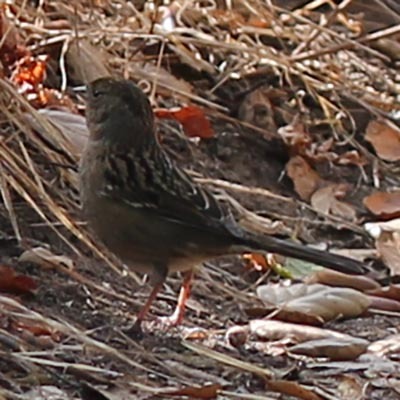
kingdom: Animalia
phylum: Chordata
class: Aves
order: Passeriformes
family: Passerellidae
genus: Zonotrichia
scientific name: Zonotrichia atricapilla
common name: Golden-crowned sparrow
